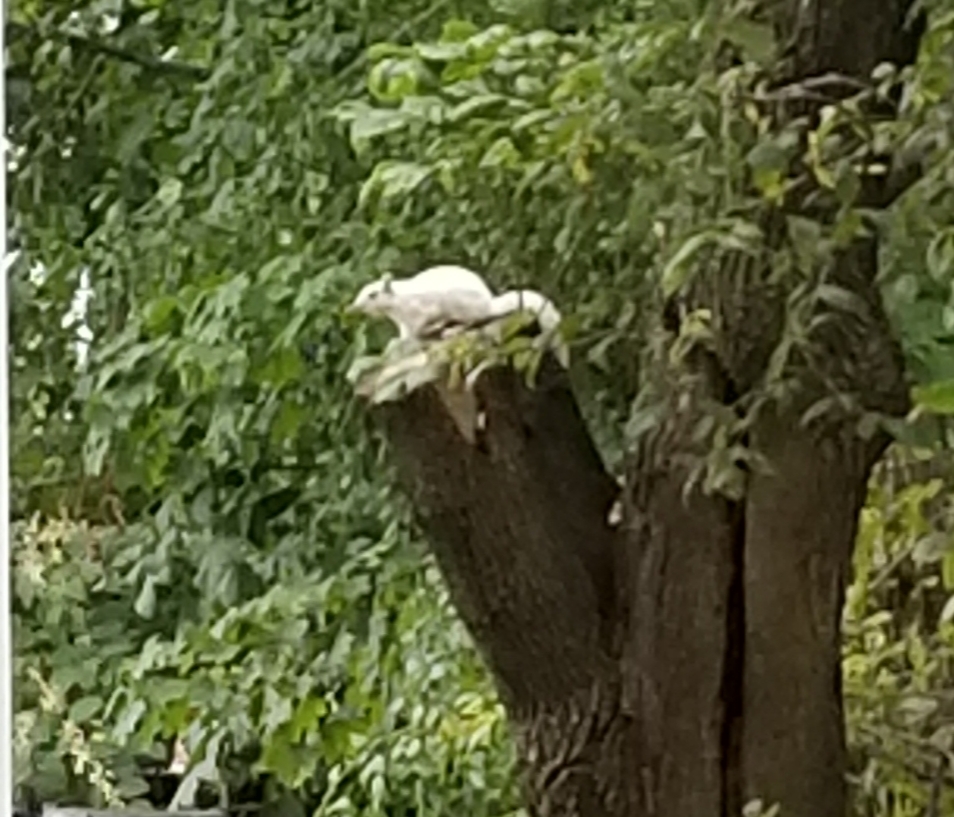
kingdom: Animalia
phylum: Chordata
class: Mammalia
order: Rodentia
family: Sciuridae
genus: Sciurus
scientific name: Sciurus carolinensis
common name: Eastern gray squirrel
